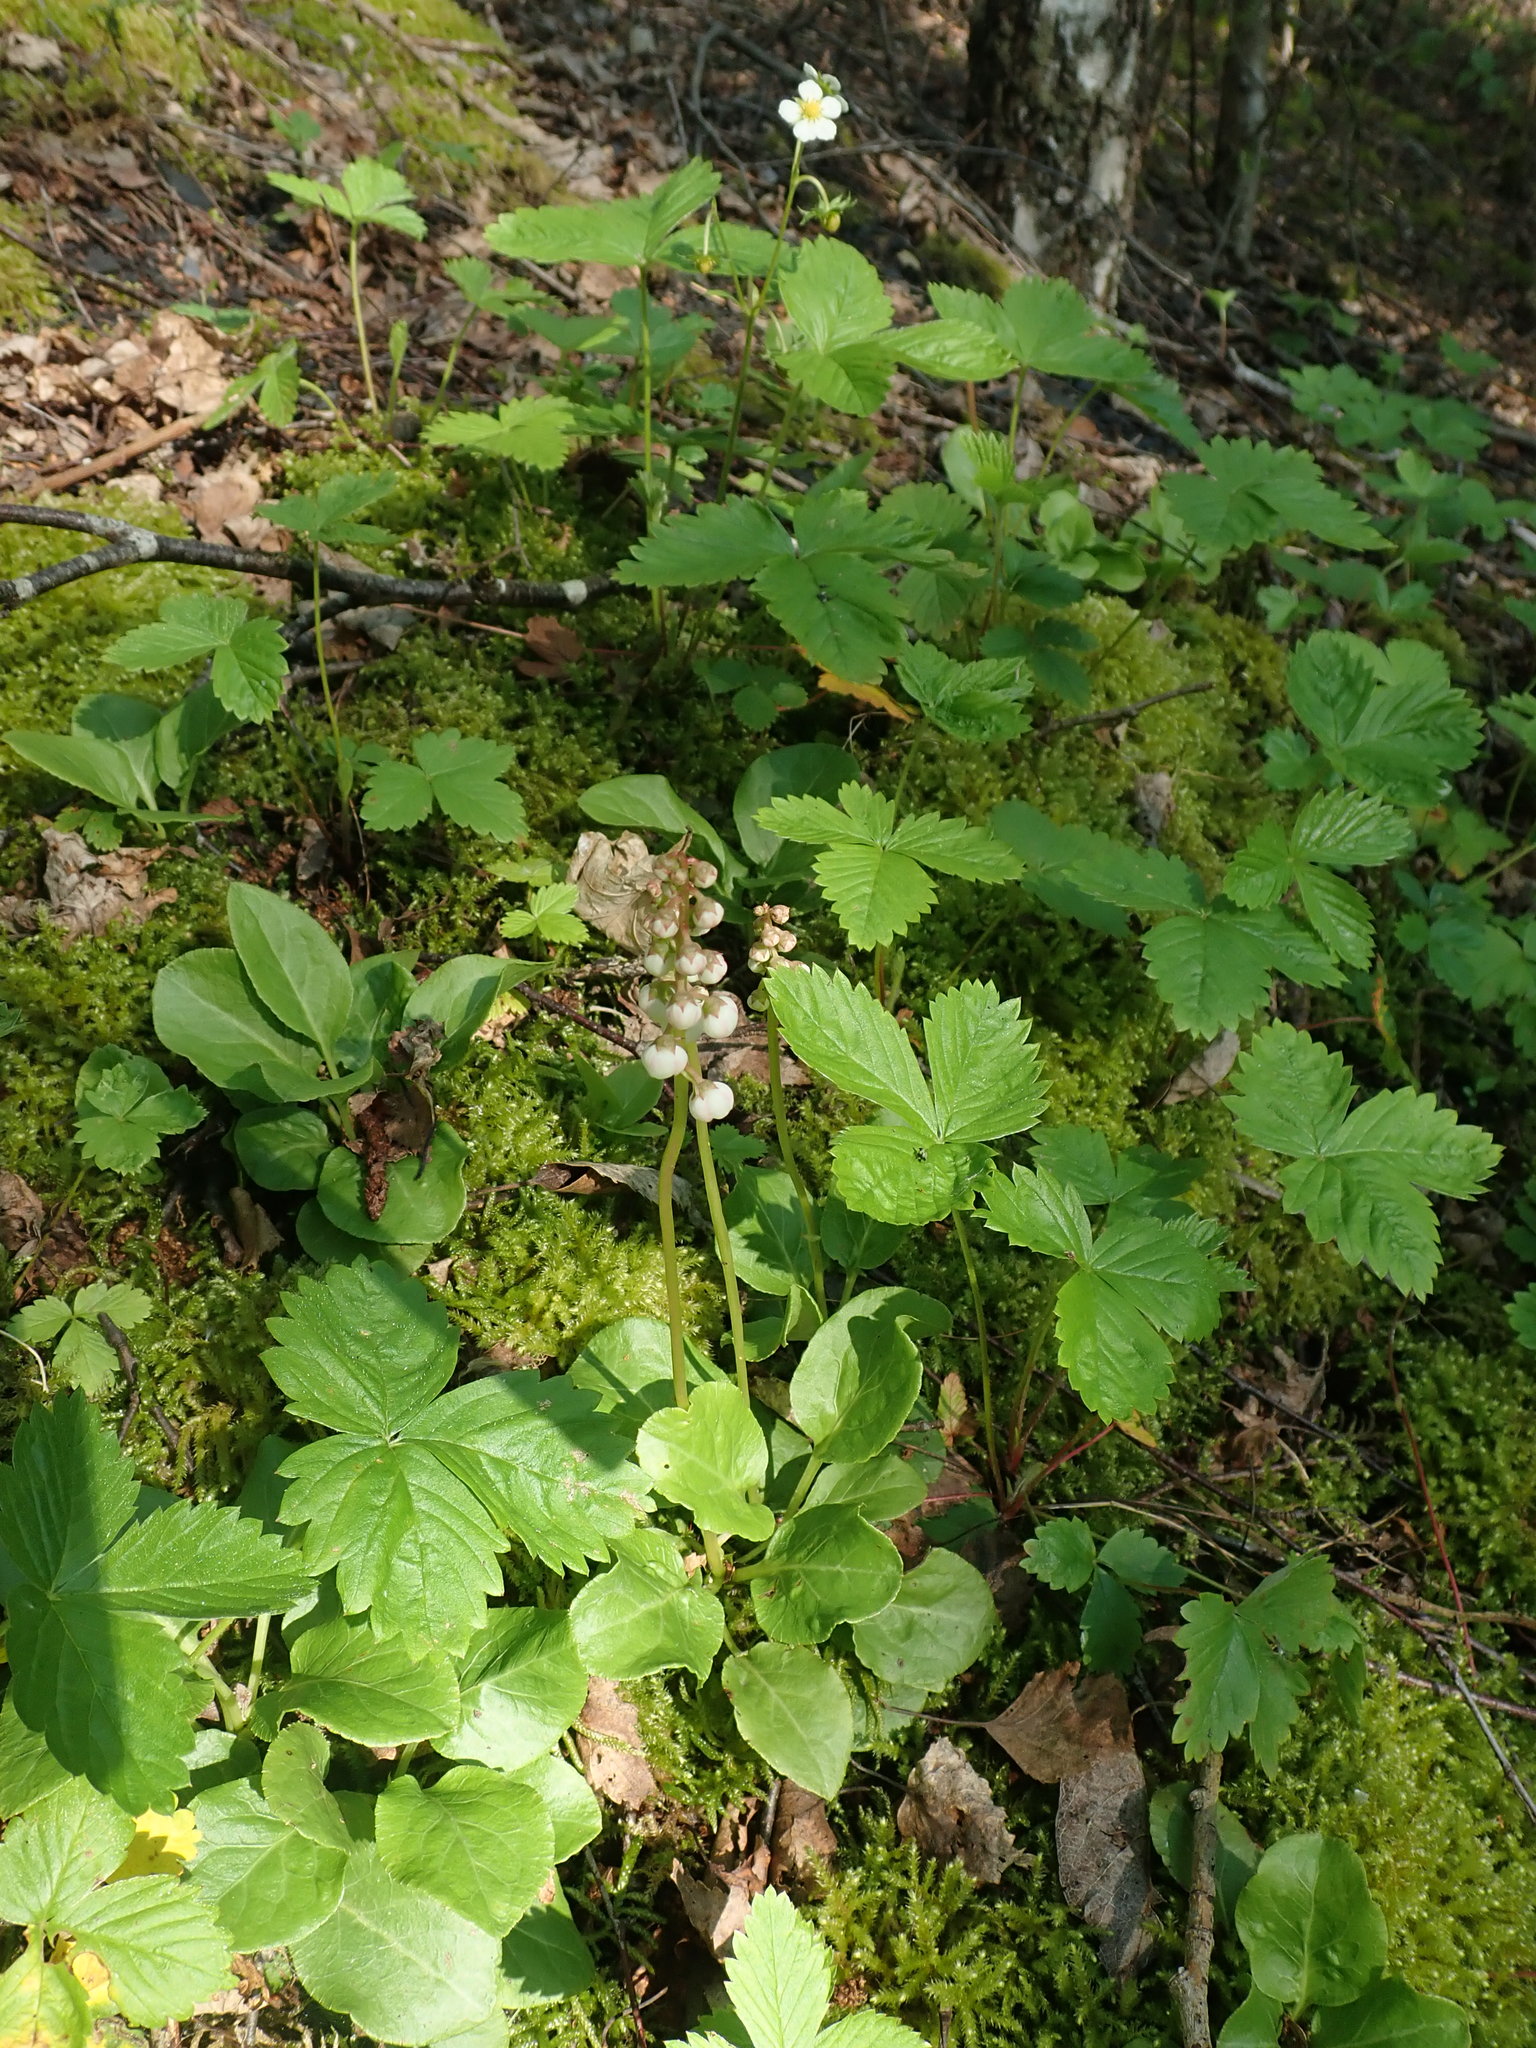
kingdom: Plantae
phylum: Tracheophyta
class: Magnoliopsida
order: Ericales
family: Ericaceae
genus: Pyrola
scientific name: Pyrola minor
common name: Common wintergreen
